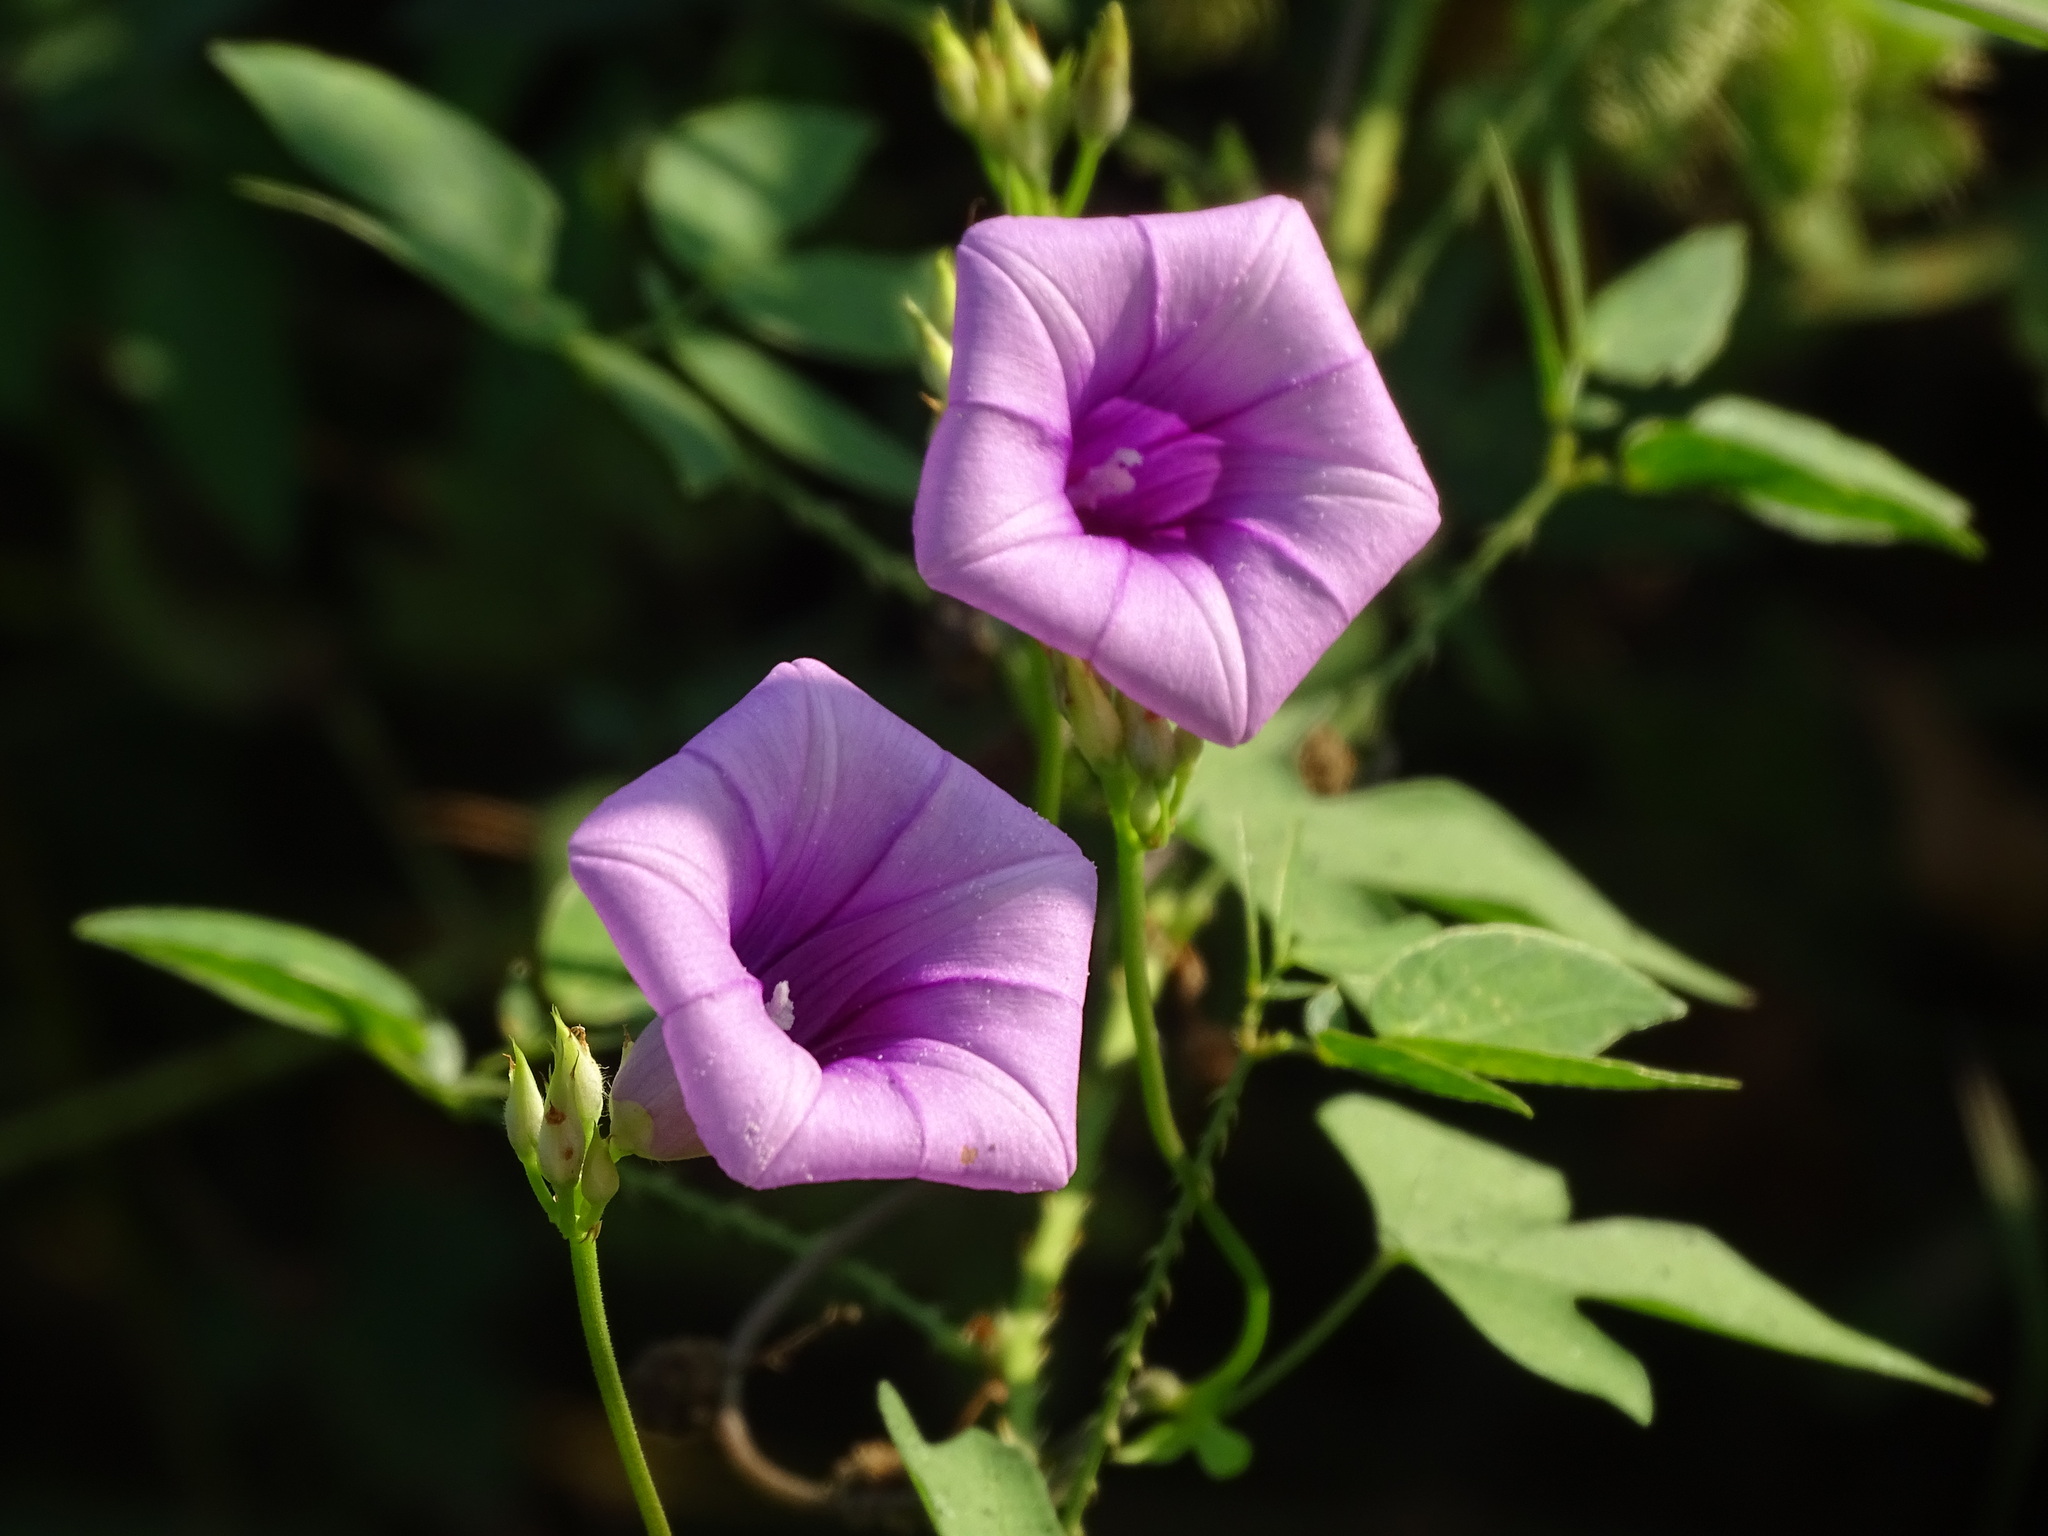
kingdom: Plantae
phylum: Tracheophyta
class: Magnoliopsida
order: Solanales
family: Convolvulaceae
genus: Ipomoea
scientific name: Ipomoea trifida
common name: Cotton morningglory
